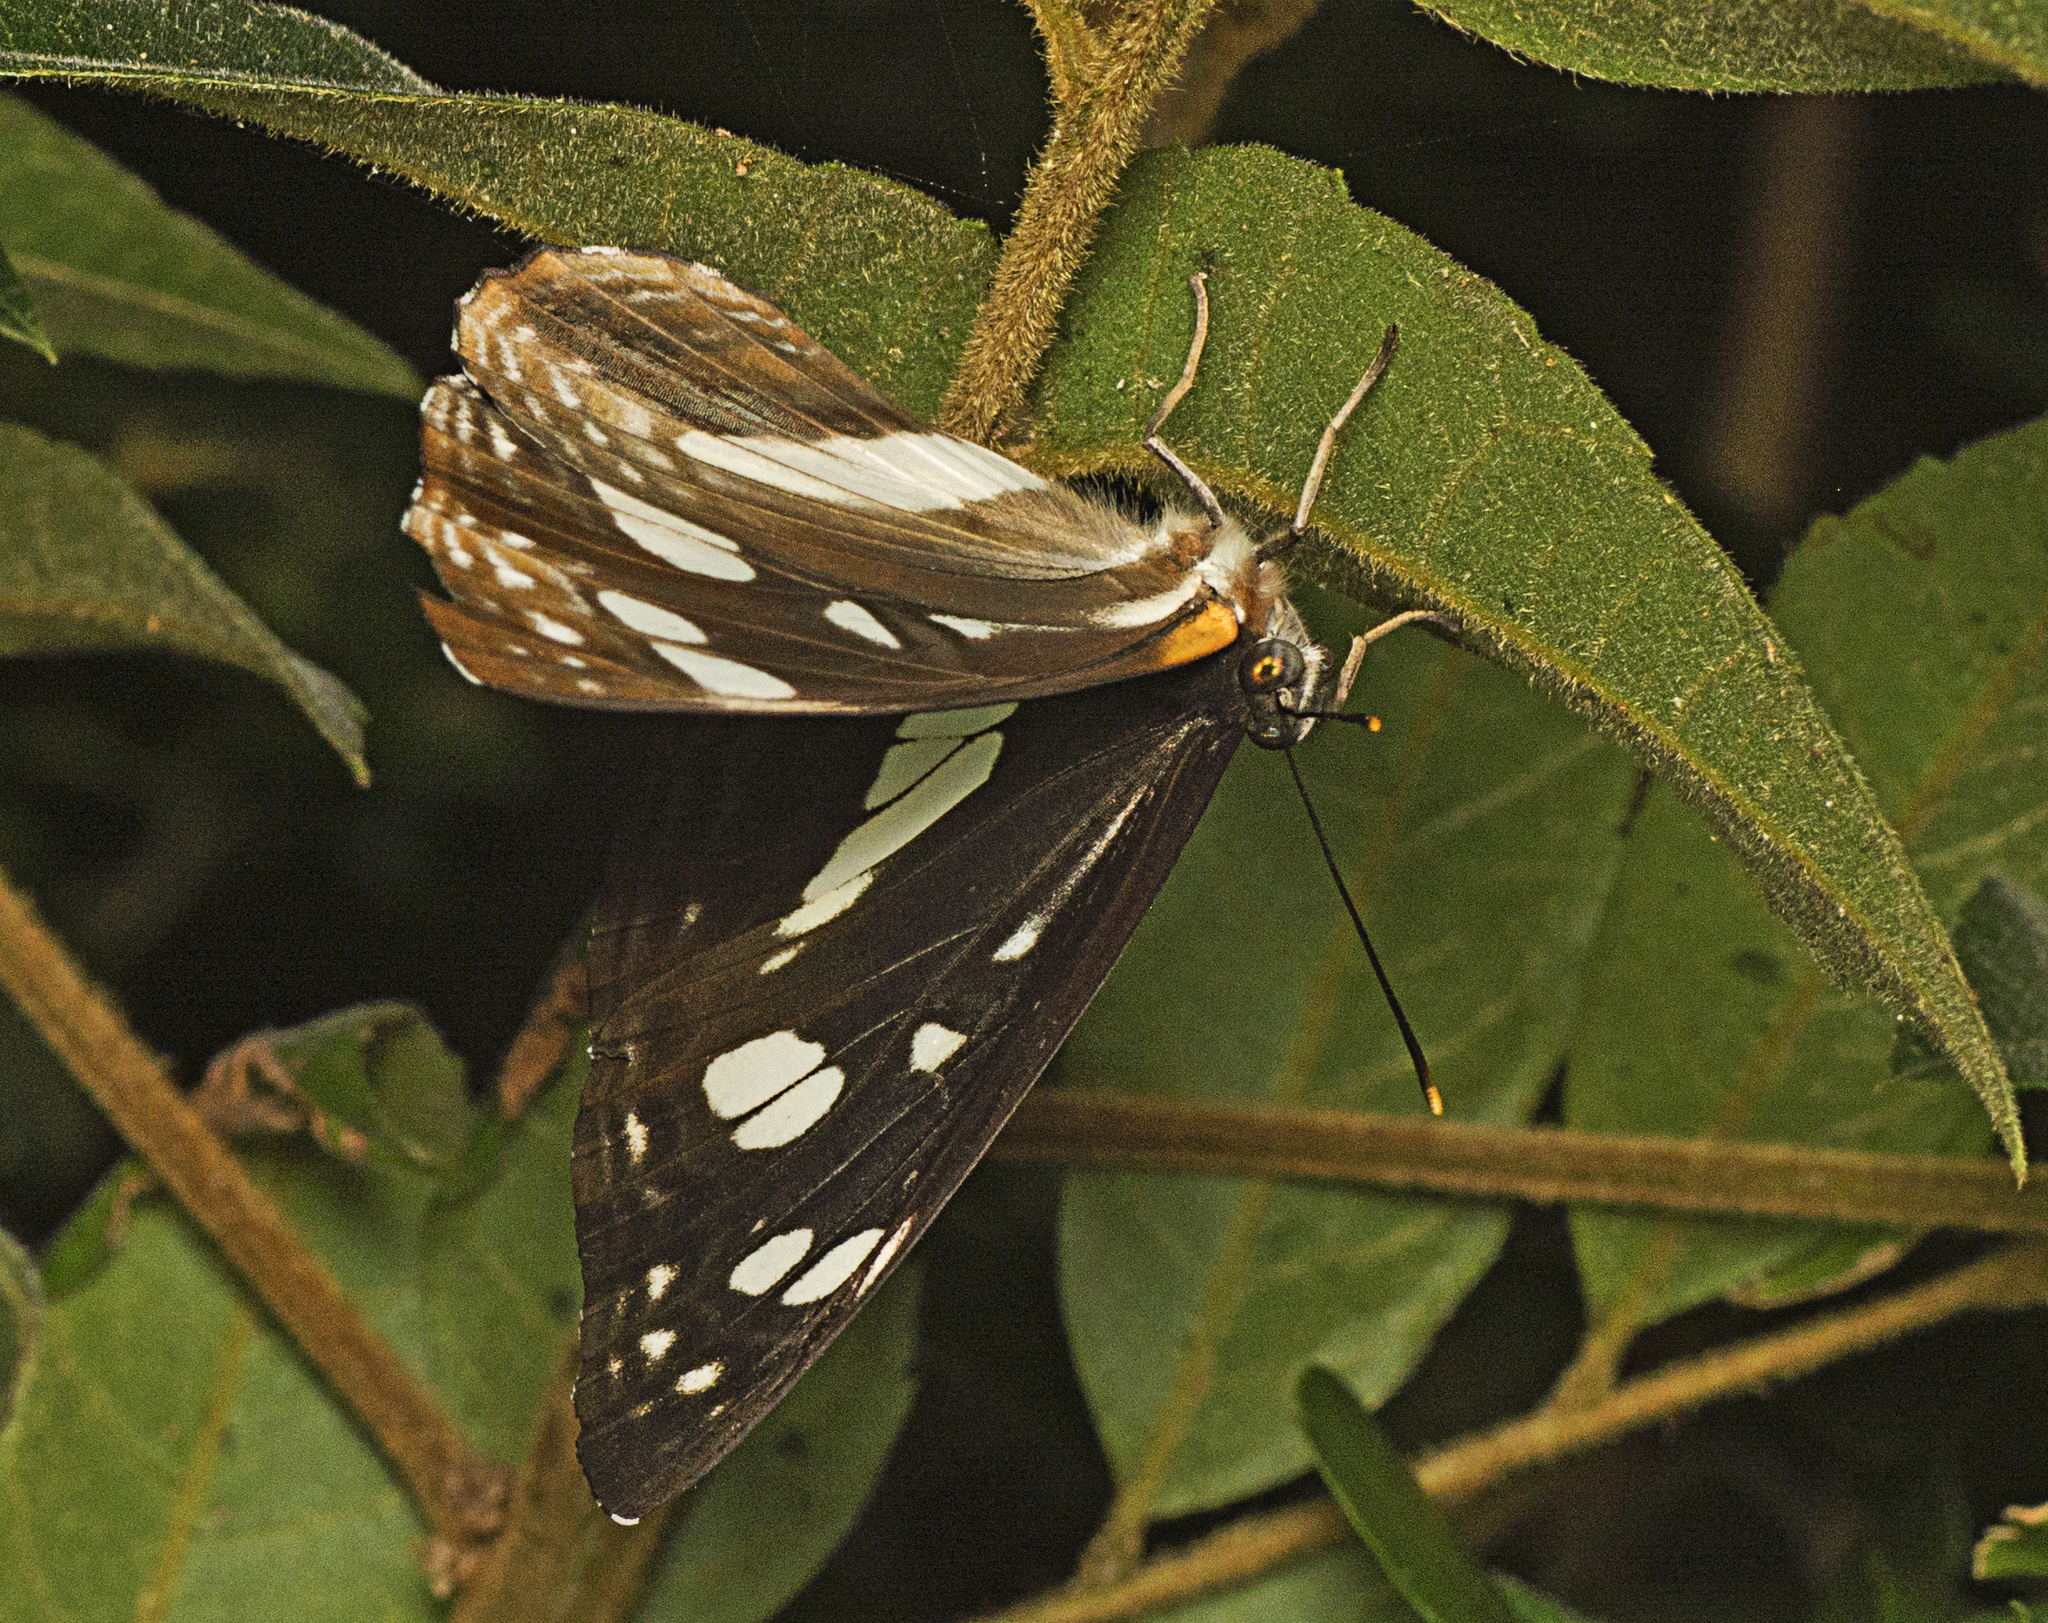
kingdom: Animalia
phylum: Arthropoda
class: Insecta
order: Lepidoptera
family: Nymphalidae
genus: Phaedyma
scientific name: Phaedyma shepherdi
